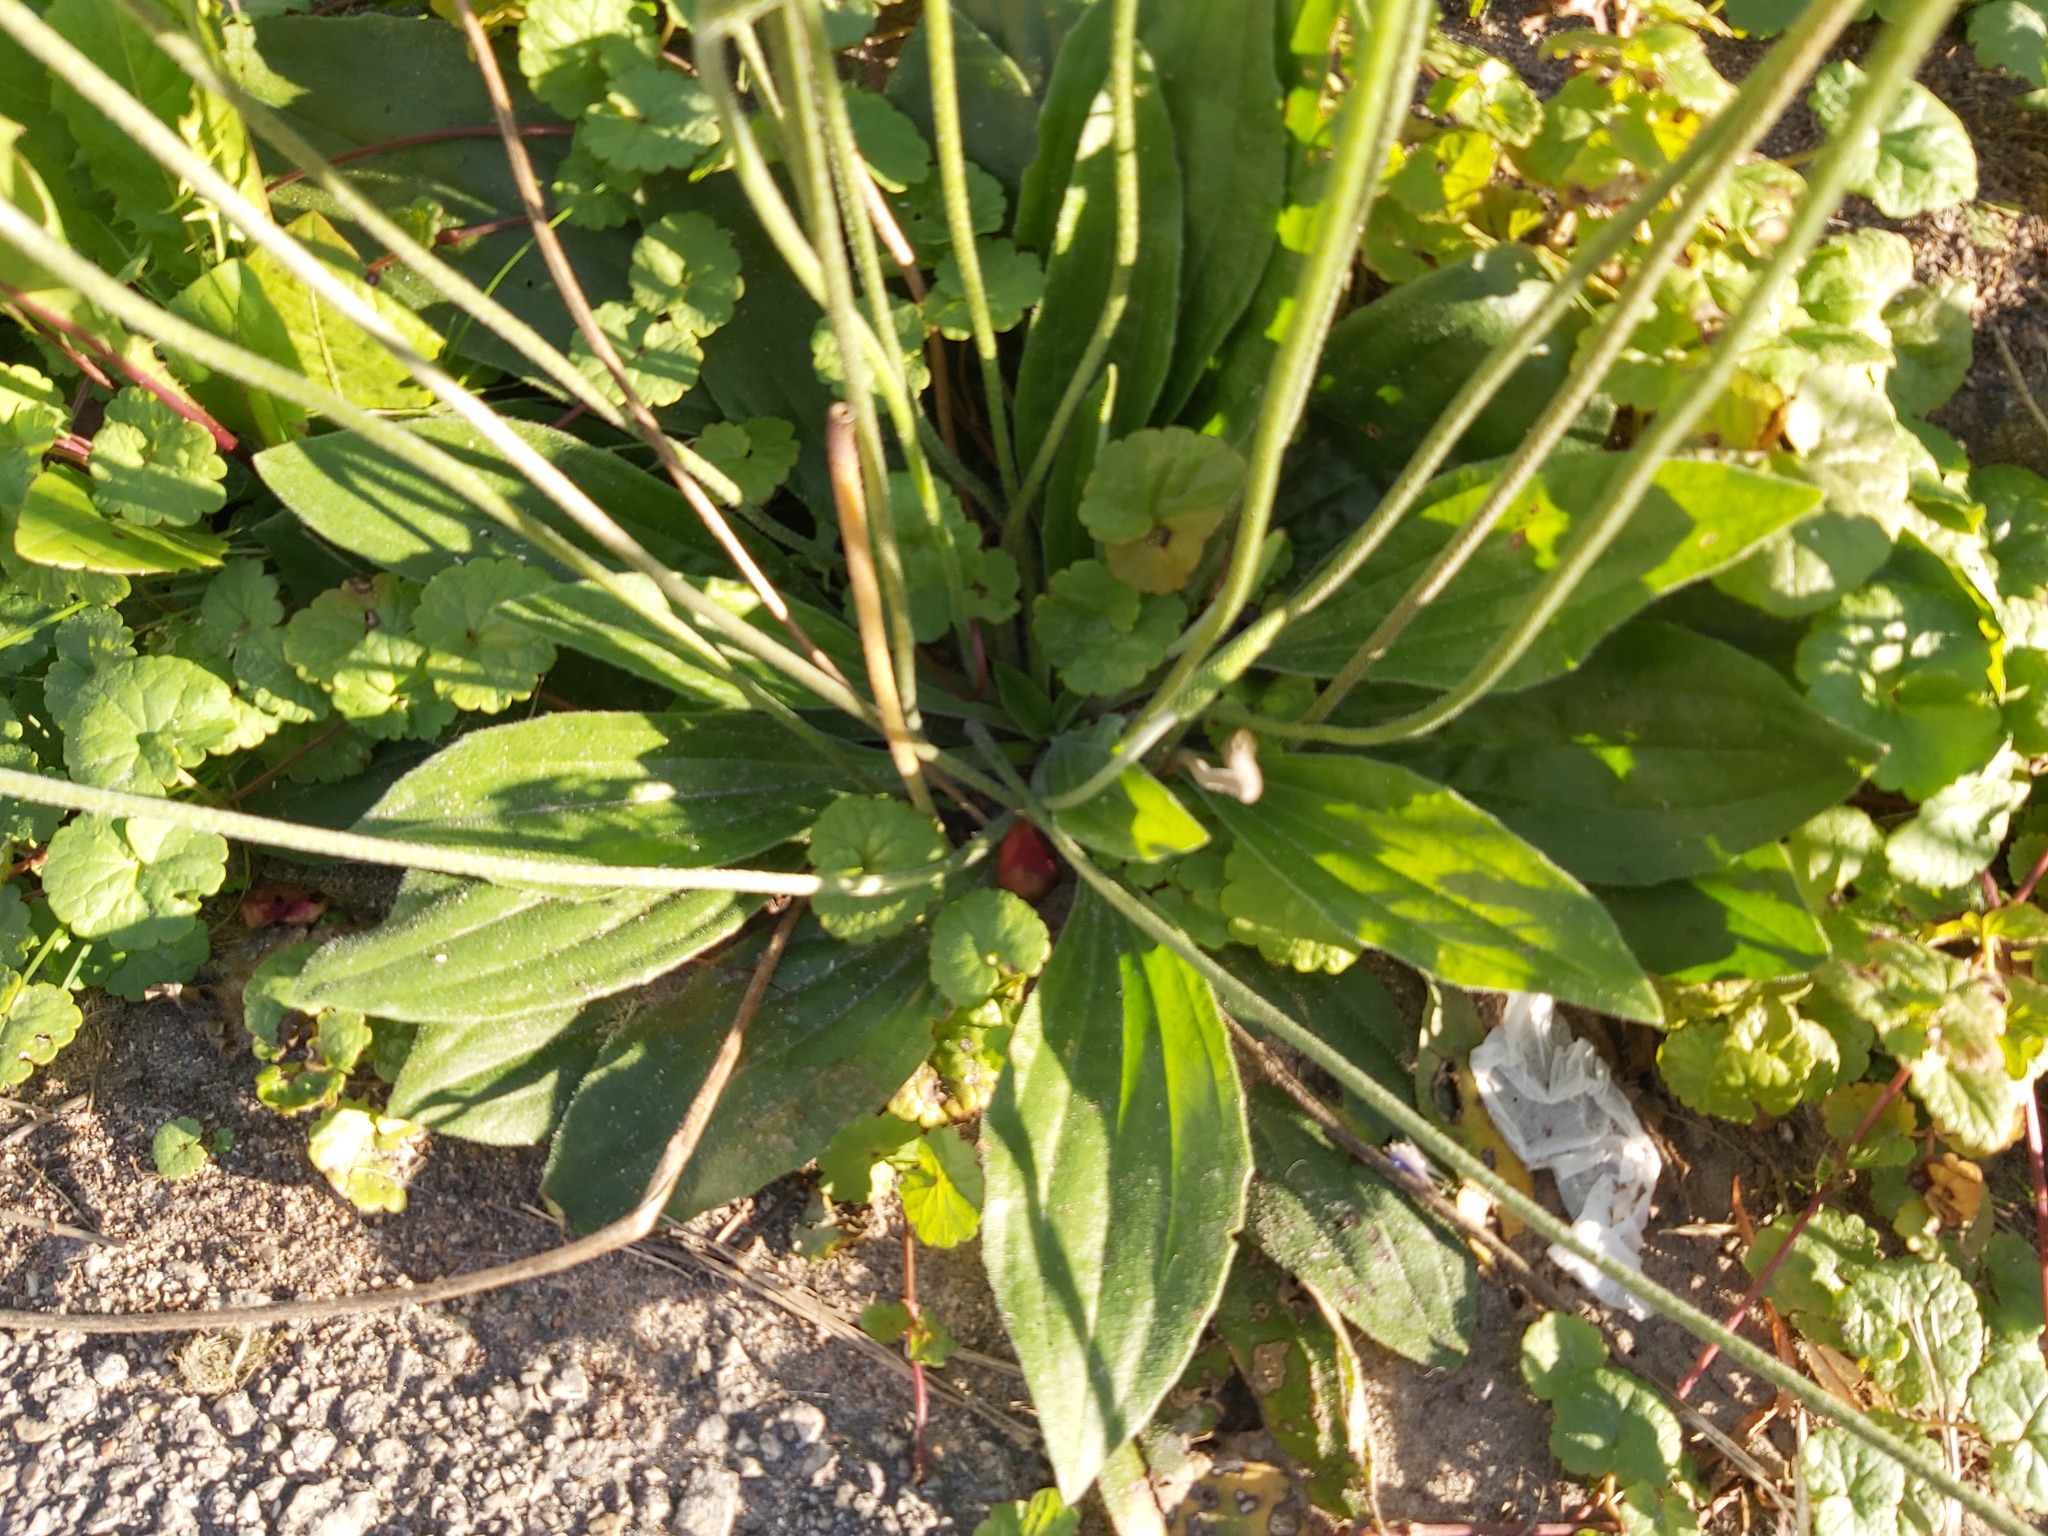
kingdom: Plantae
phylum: Tracheophyta
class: Magnoliopsida
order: Lamiales
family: Plantaginaceae
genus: Plantago
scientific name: Plantago media
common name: Hoary plantain
